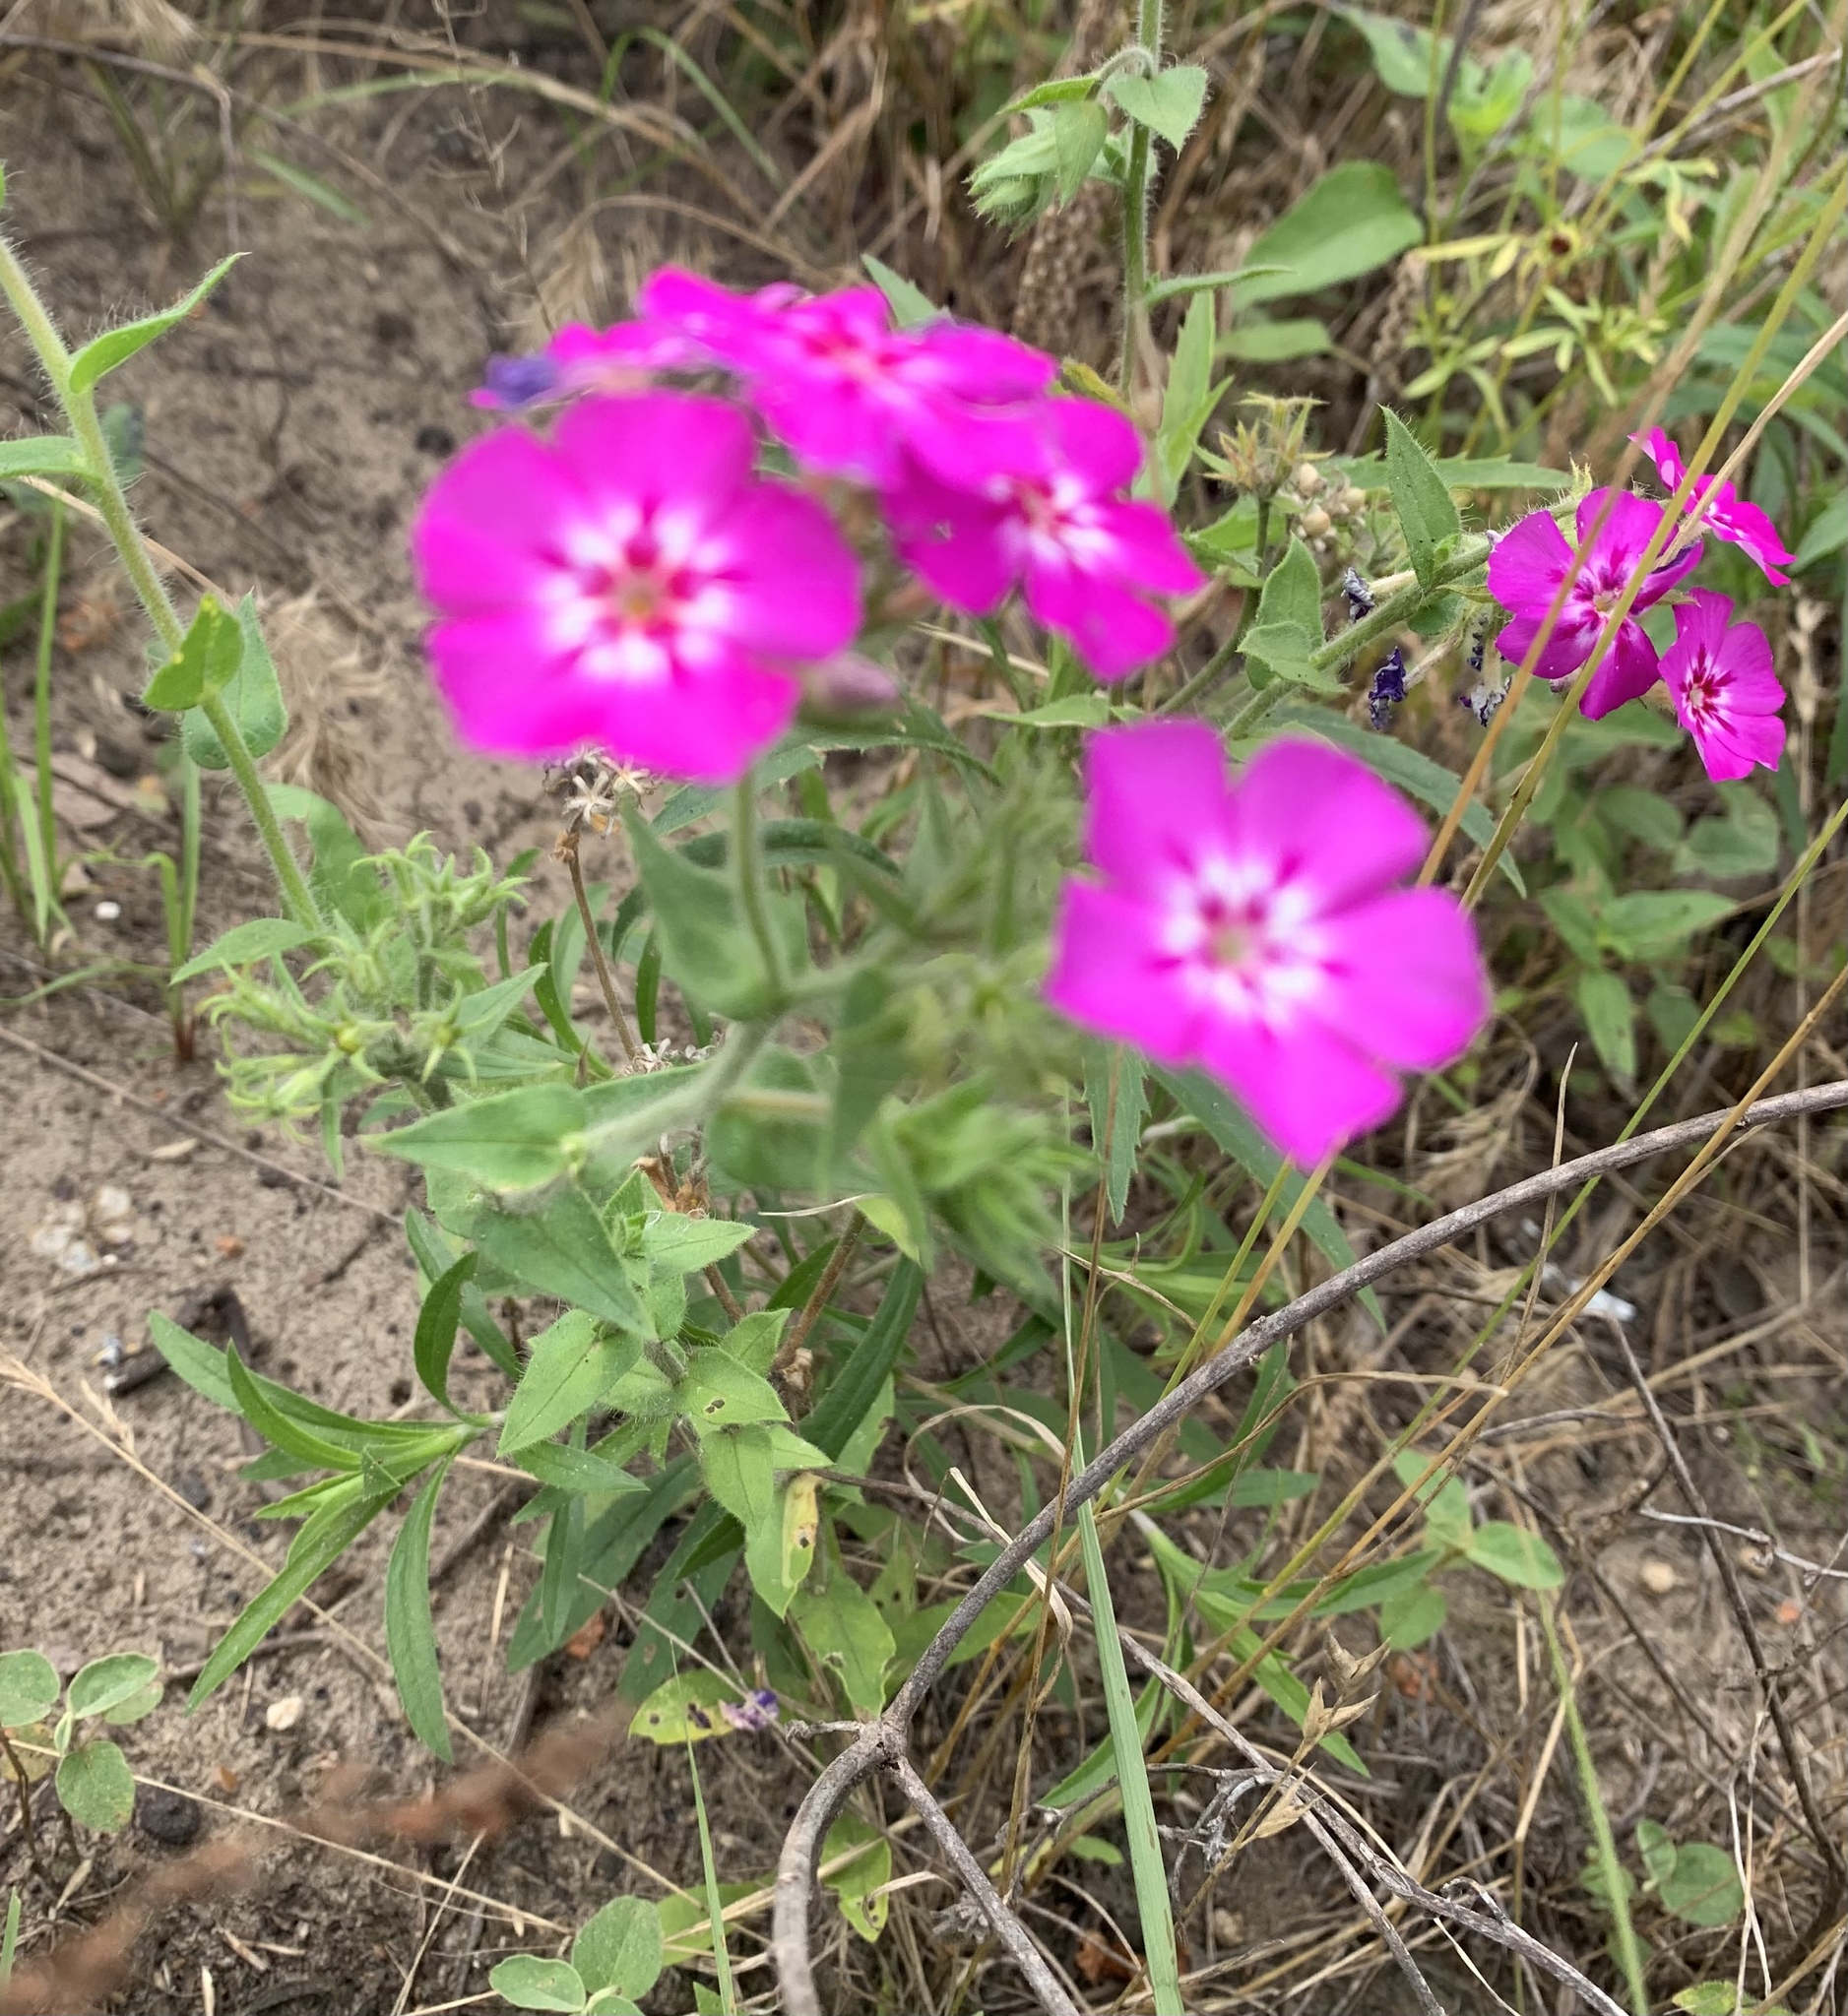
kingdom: Plantae
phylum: Tracheophyta
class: Magnoliopsida
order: Ericales
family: Polemoniaceae
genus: Phlox
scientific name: Phlox drummondii
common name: Drummond's phlox
